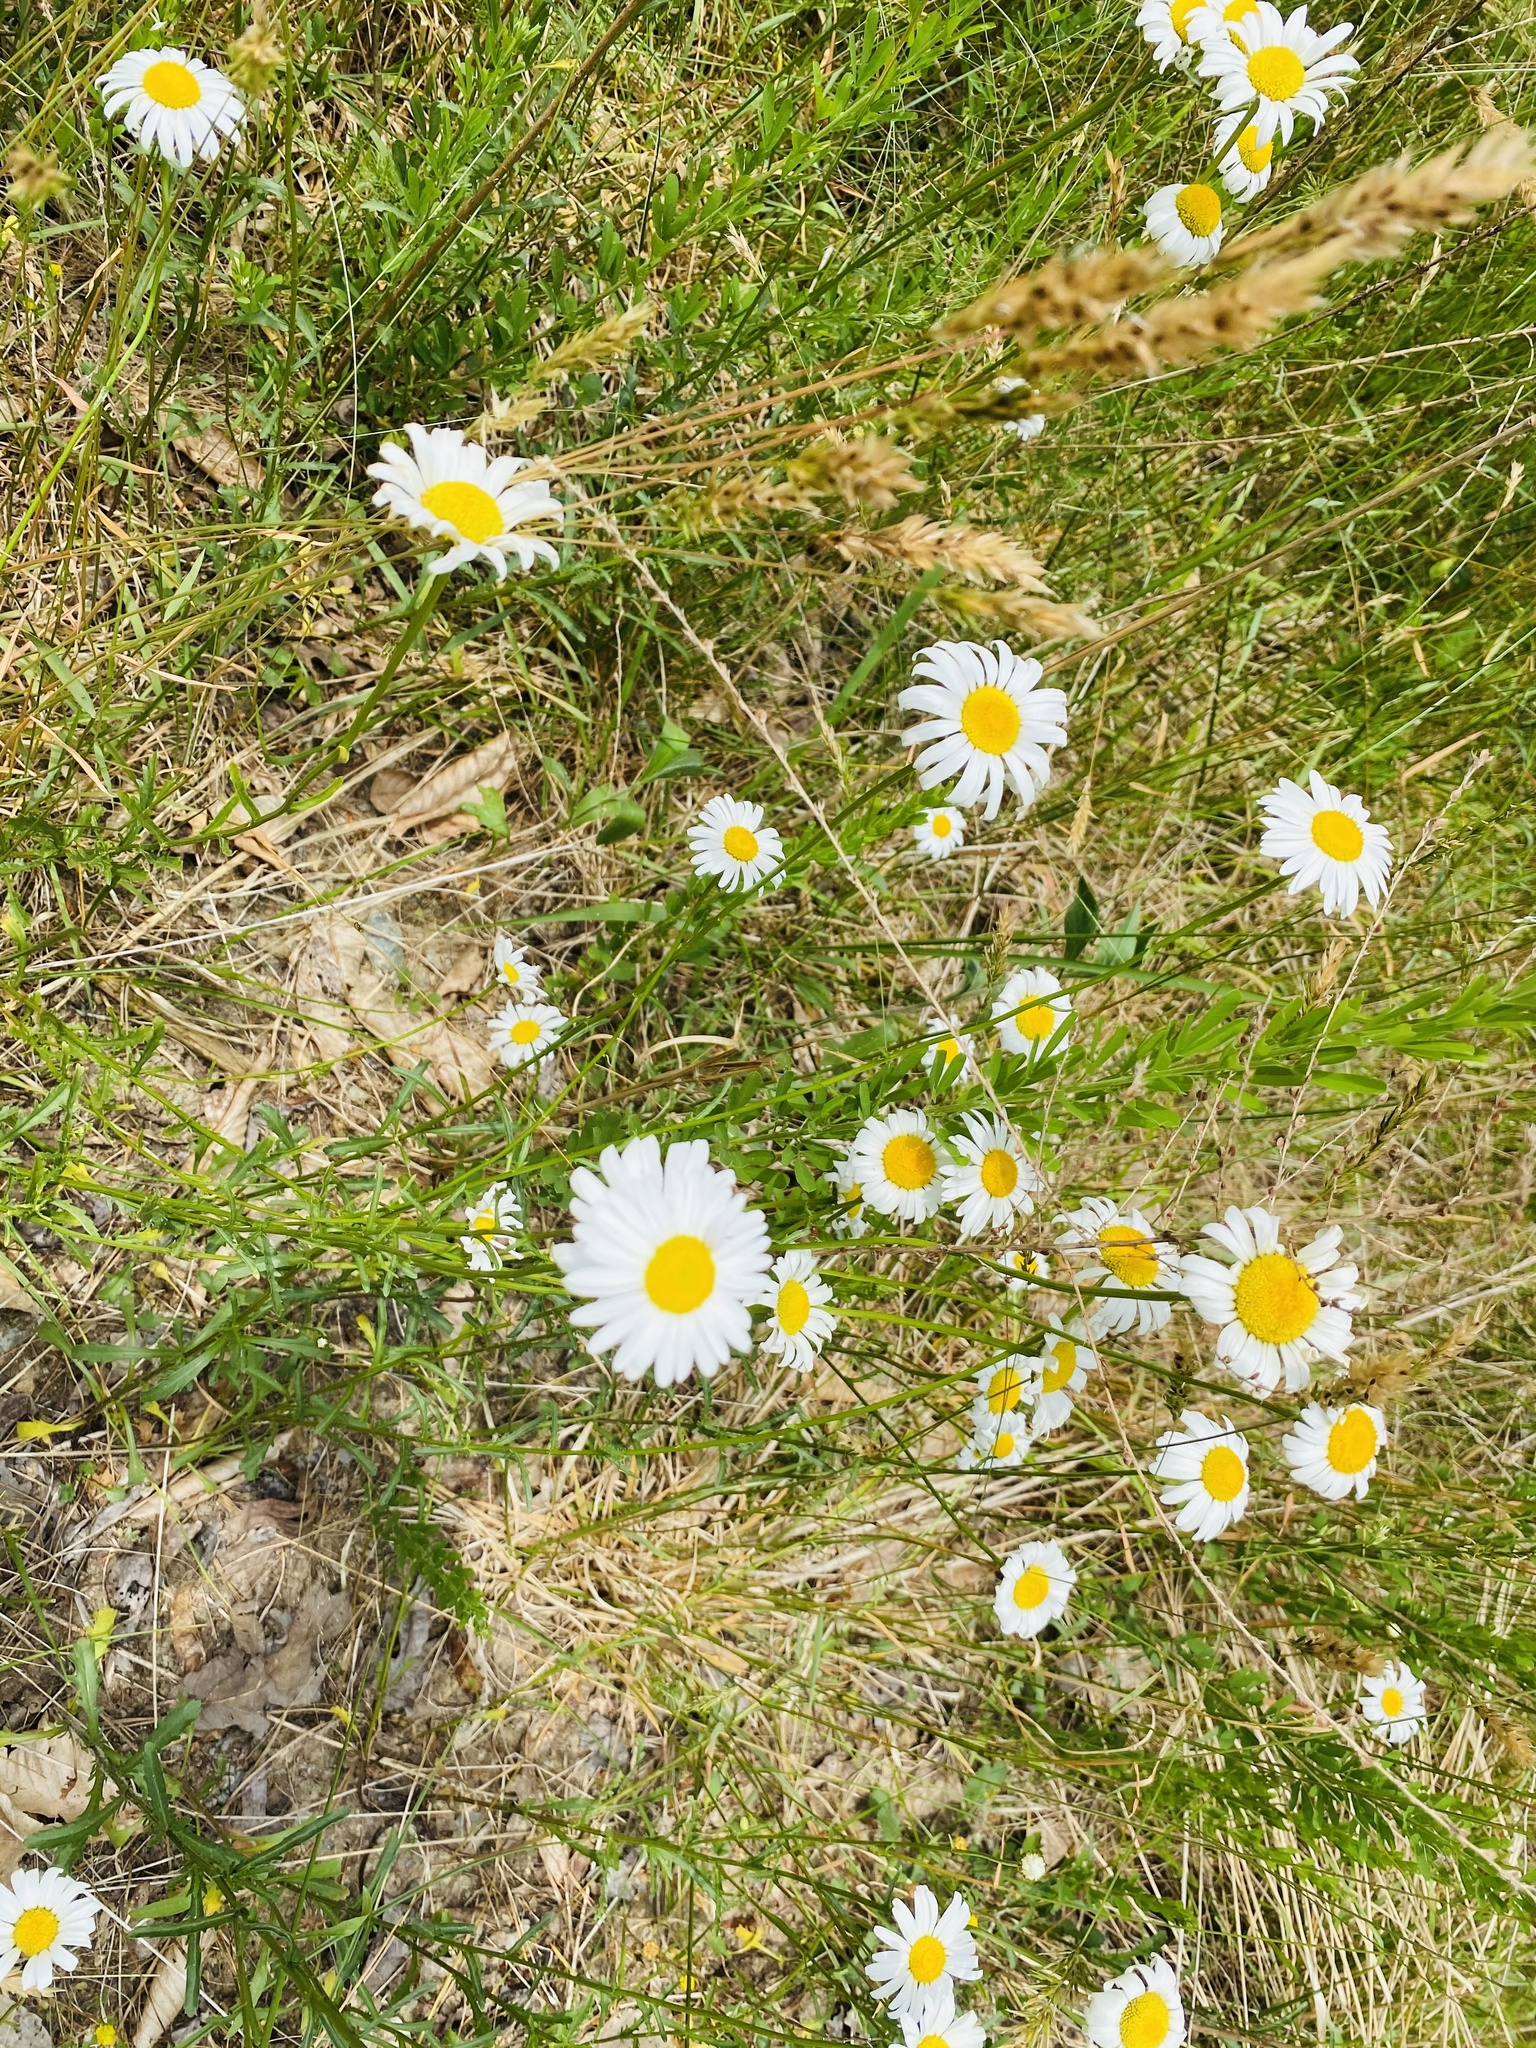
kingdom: Plantae
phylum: Tracheophyta
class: Magnoliopsida
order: Asterales
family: Asteraceae
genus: Leucanthemum
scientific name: Leucanthemum vulgare
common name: Oxeye daisy
